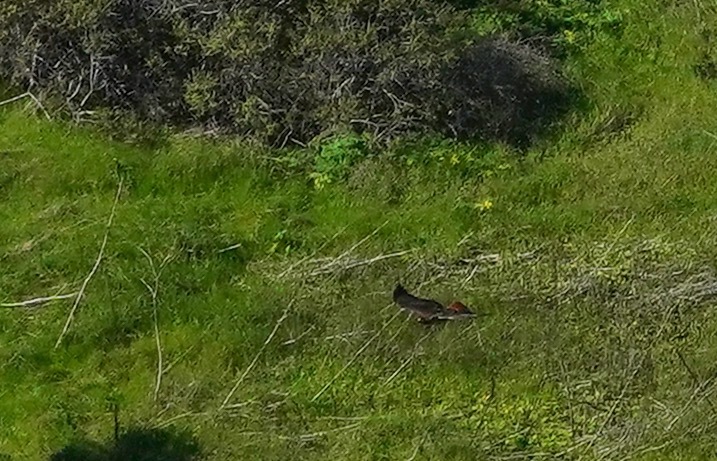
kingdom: Animalia
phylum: Chordata
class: Aves
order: Accipitriformes
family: Accipitridae
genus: Buteo
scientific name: Buteo jamaicensis
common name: Red-tailed hawk
